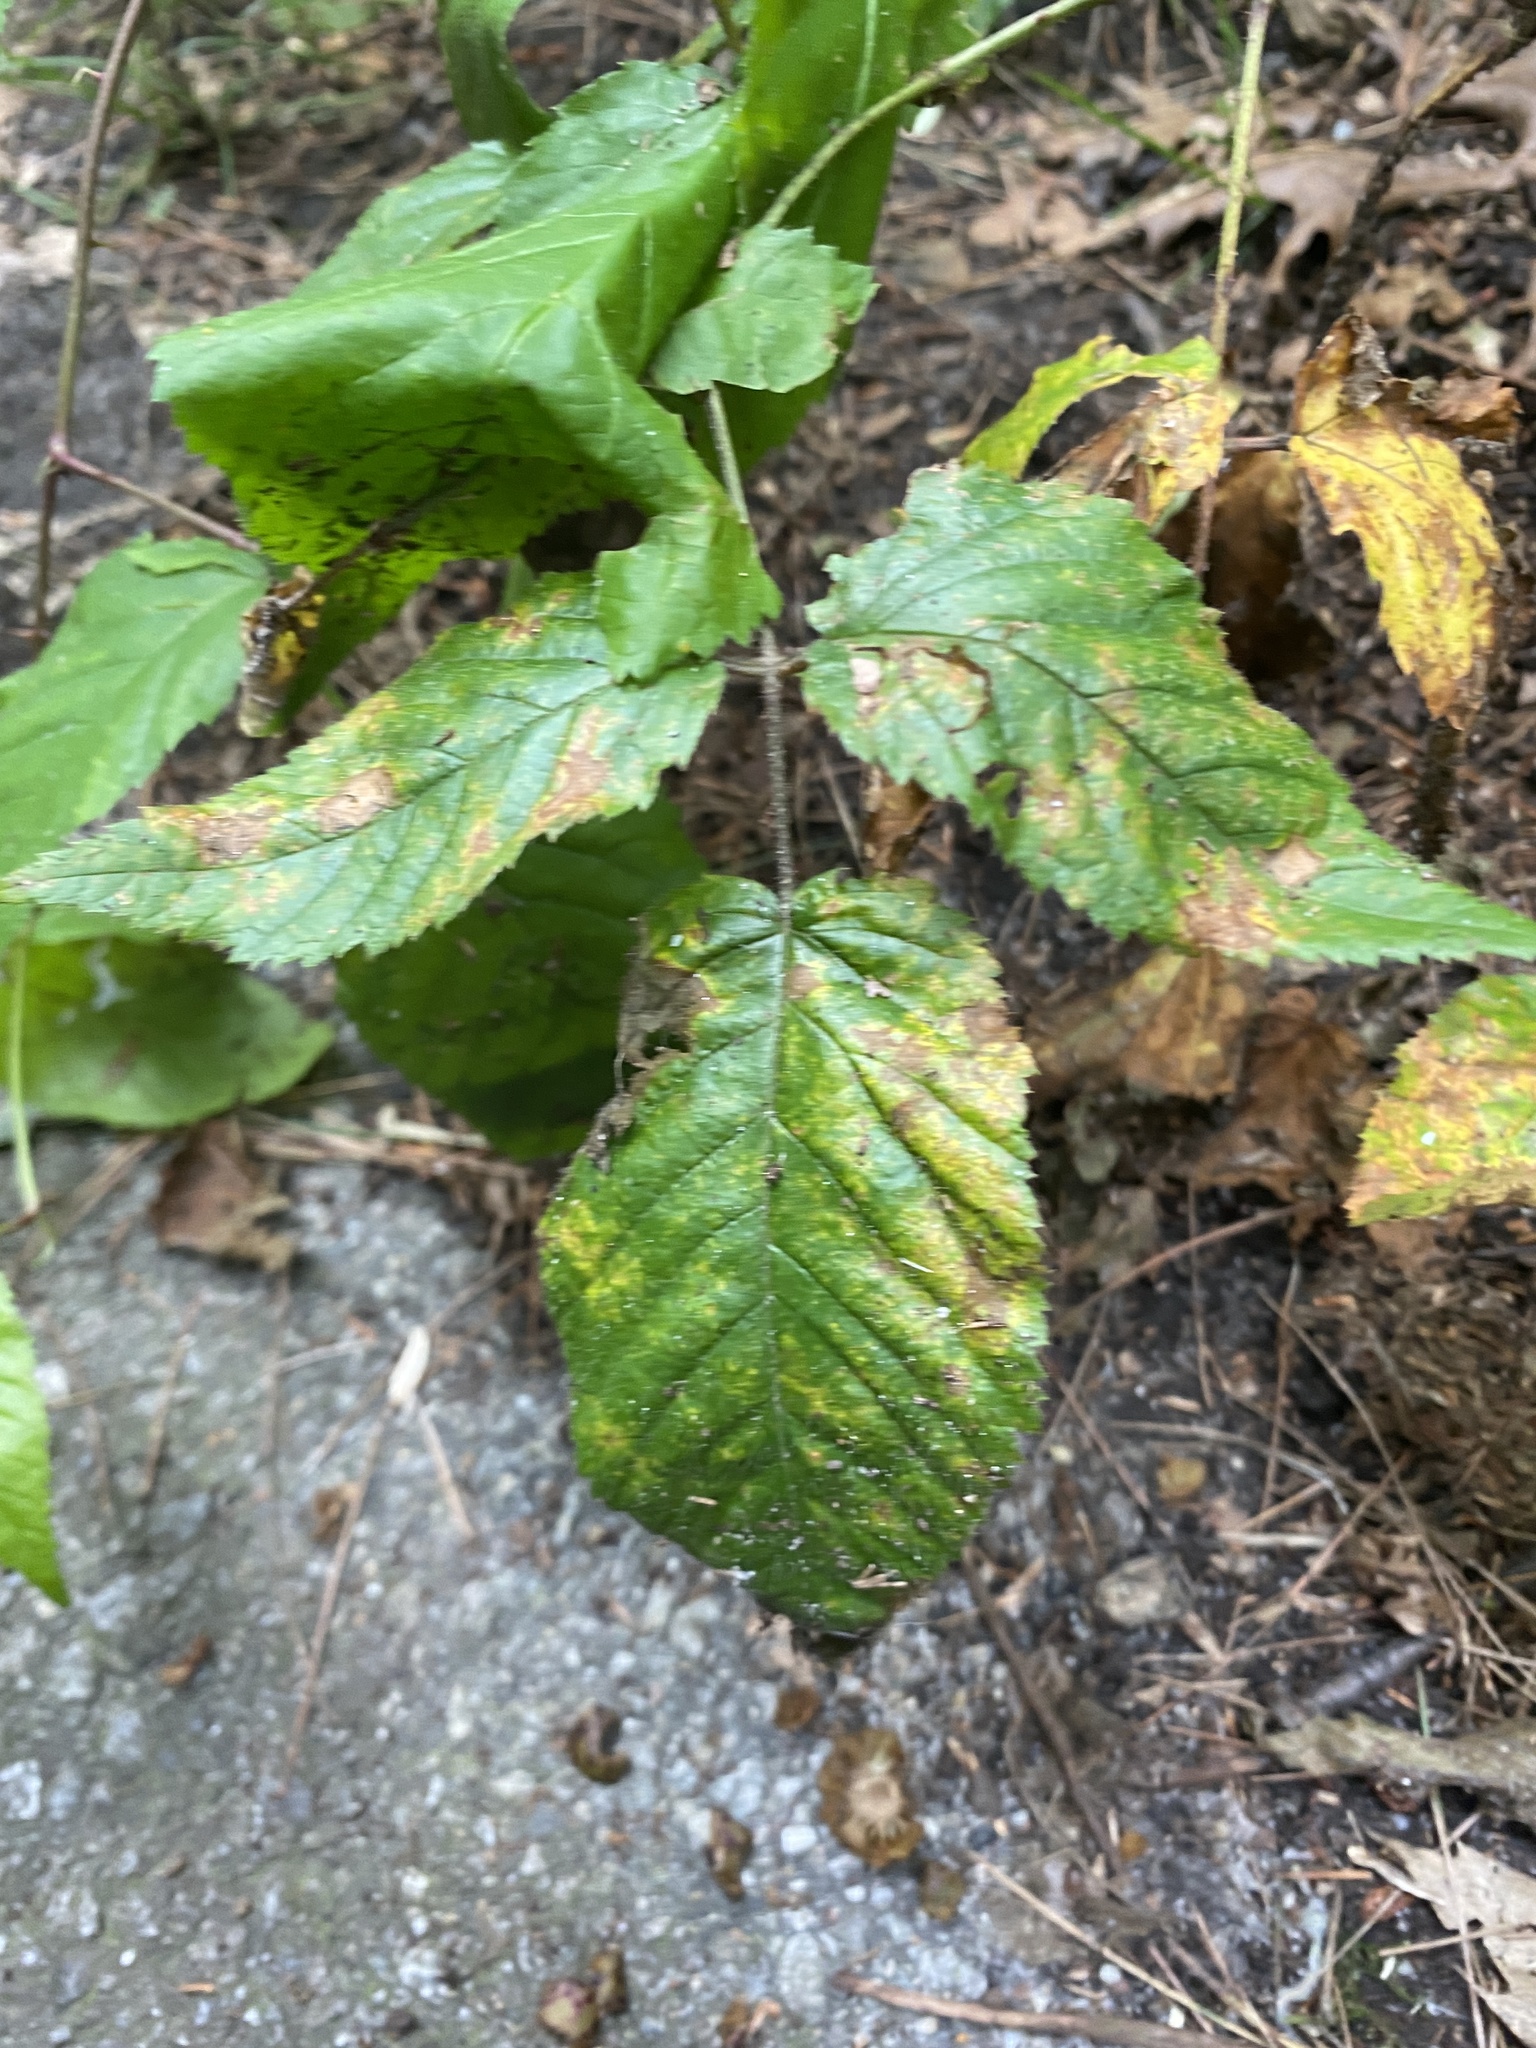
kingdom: Plantae
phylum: Tracheophyta
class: Magnoliopsida
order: Fagales
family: Betulaceae
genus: Ostrya
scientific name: Ostrya virginiana
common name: Ironwood
